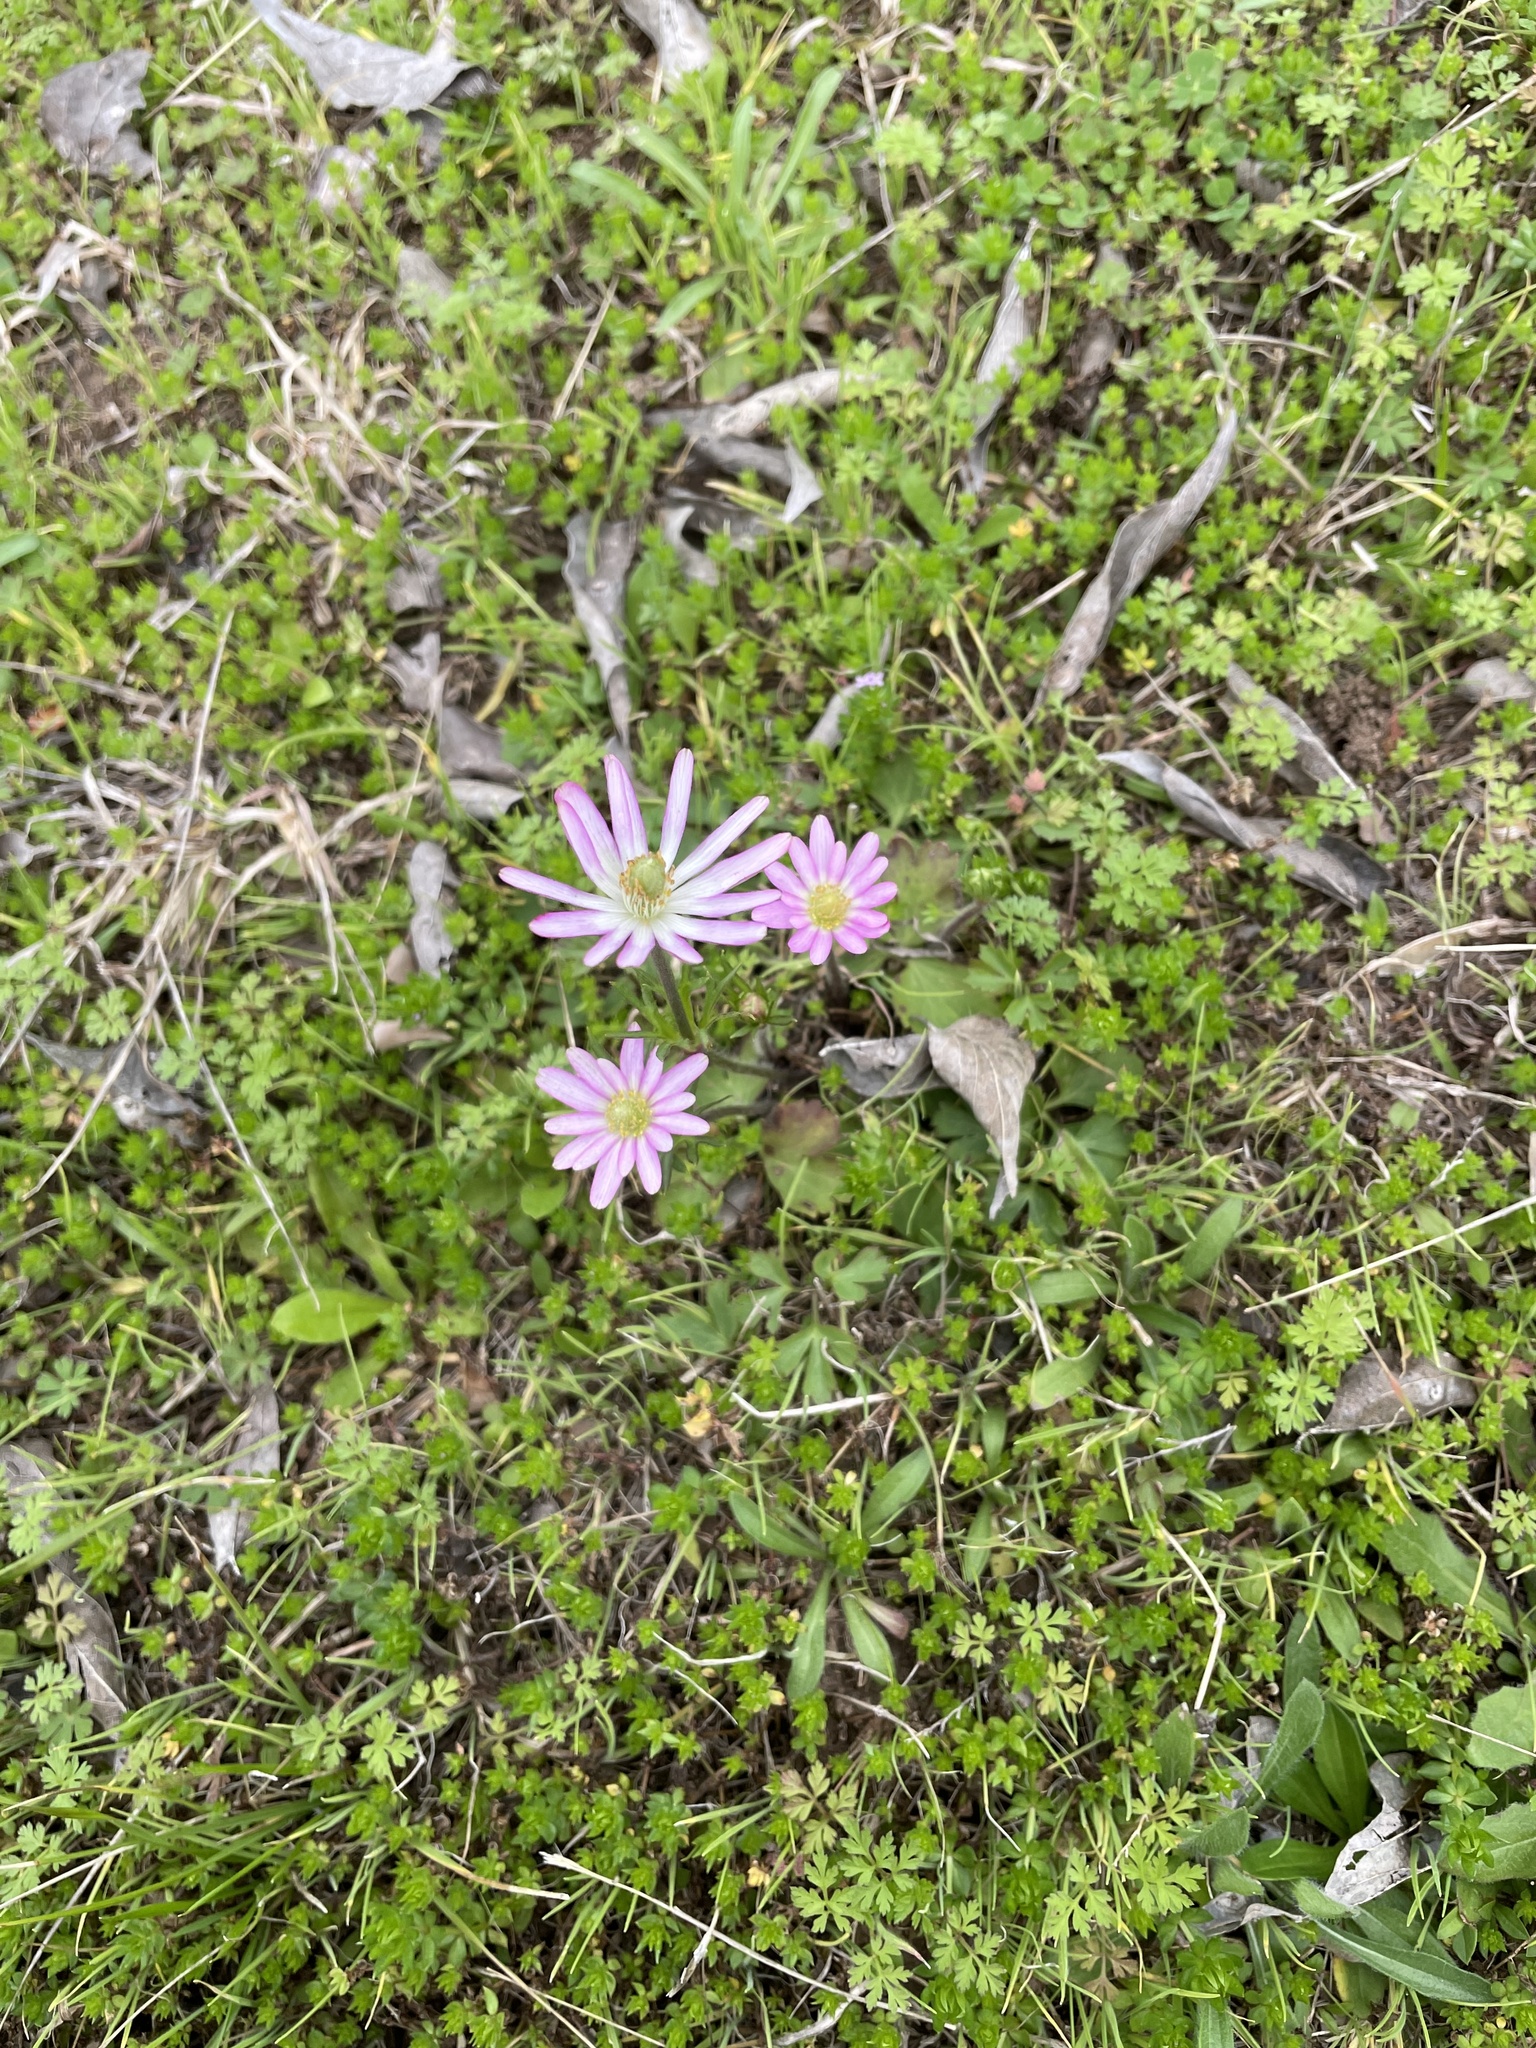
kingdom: Plantae
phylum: Tracheophyta
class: Magnoliopsida
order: Ranunculales
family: Ranunculaceae
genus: Anemone
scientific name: Anemone berlandieri
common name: Ten-petal anemone
